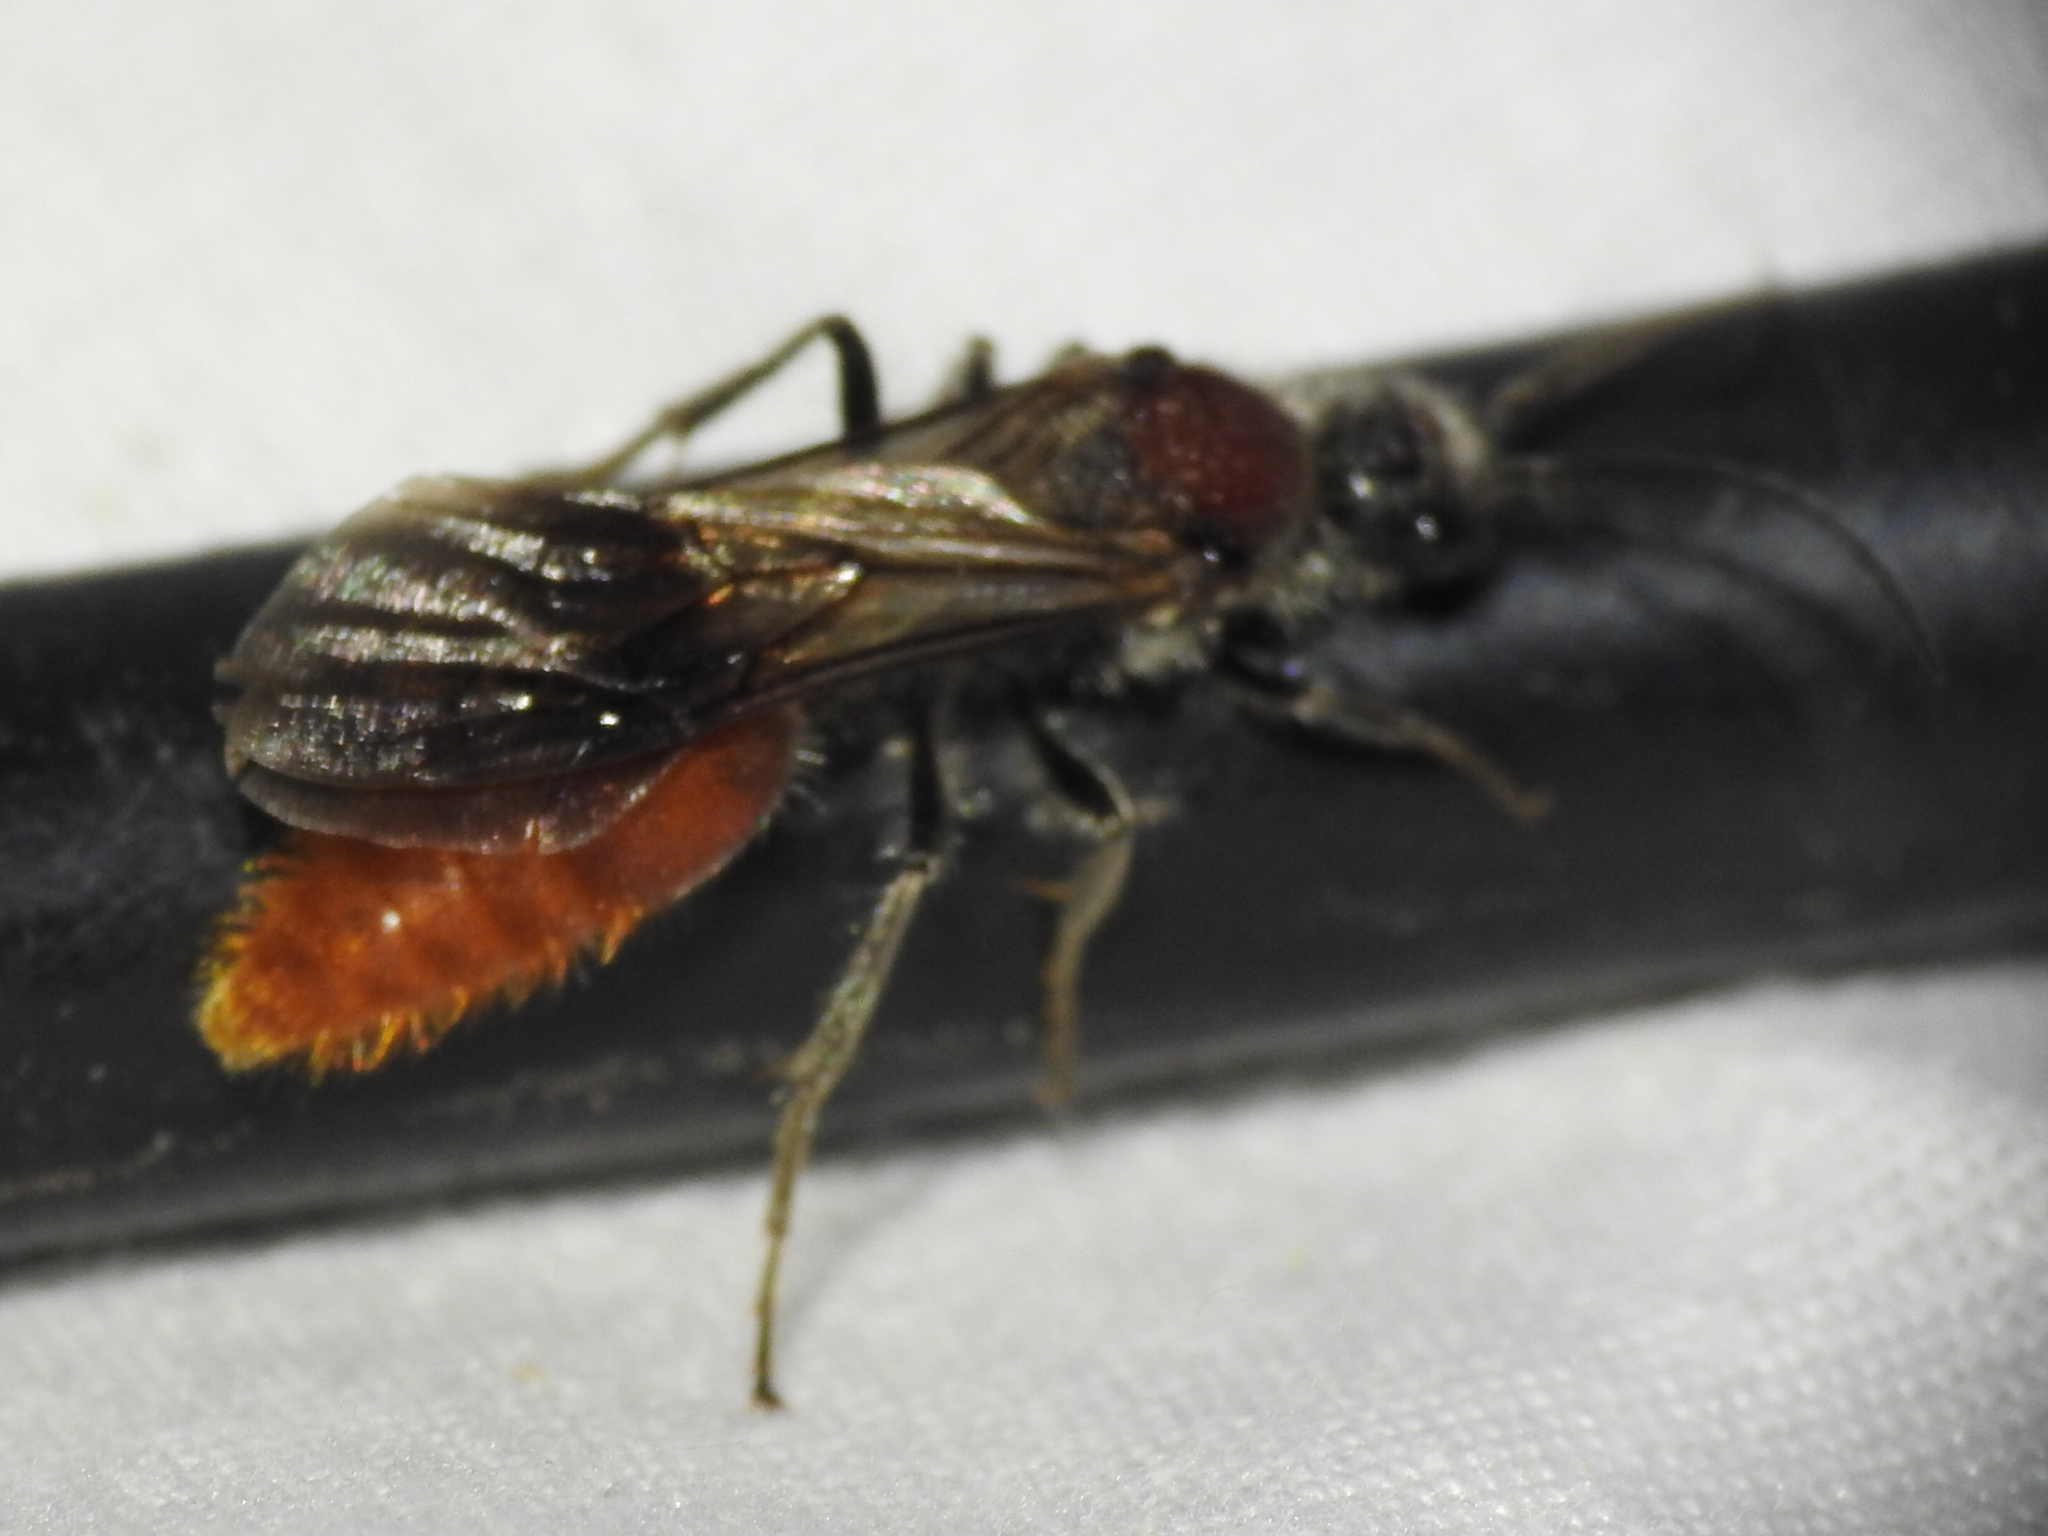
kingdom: Animalia
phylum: Arthropoda
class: Insecta
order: Hymenoptera
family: Mutillidae
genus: Sphaeropthalma
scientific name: Sphaeropthalma imperialis
